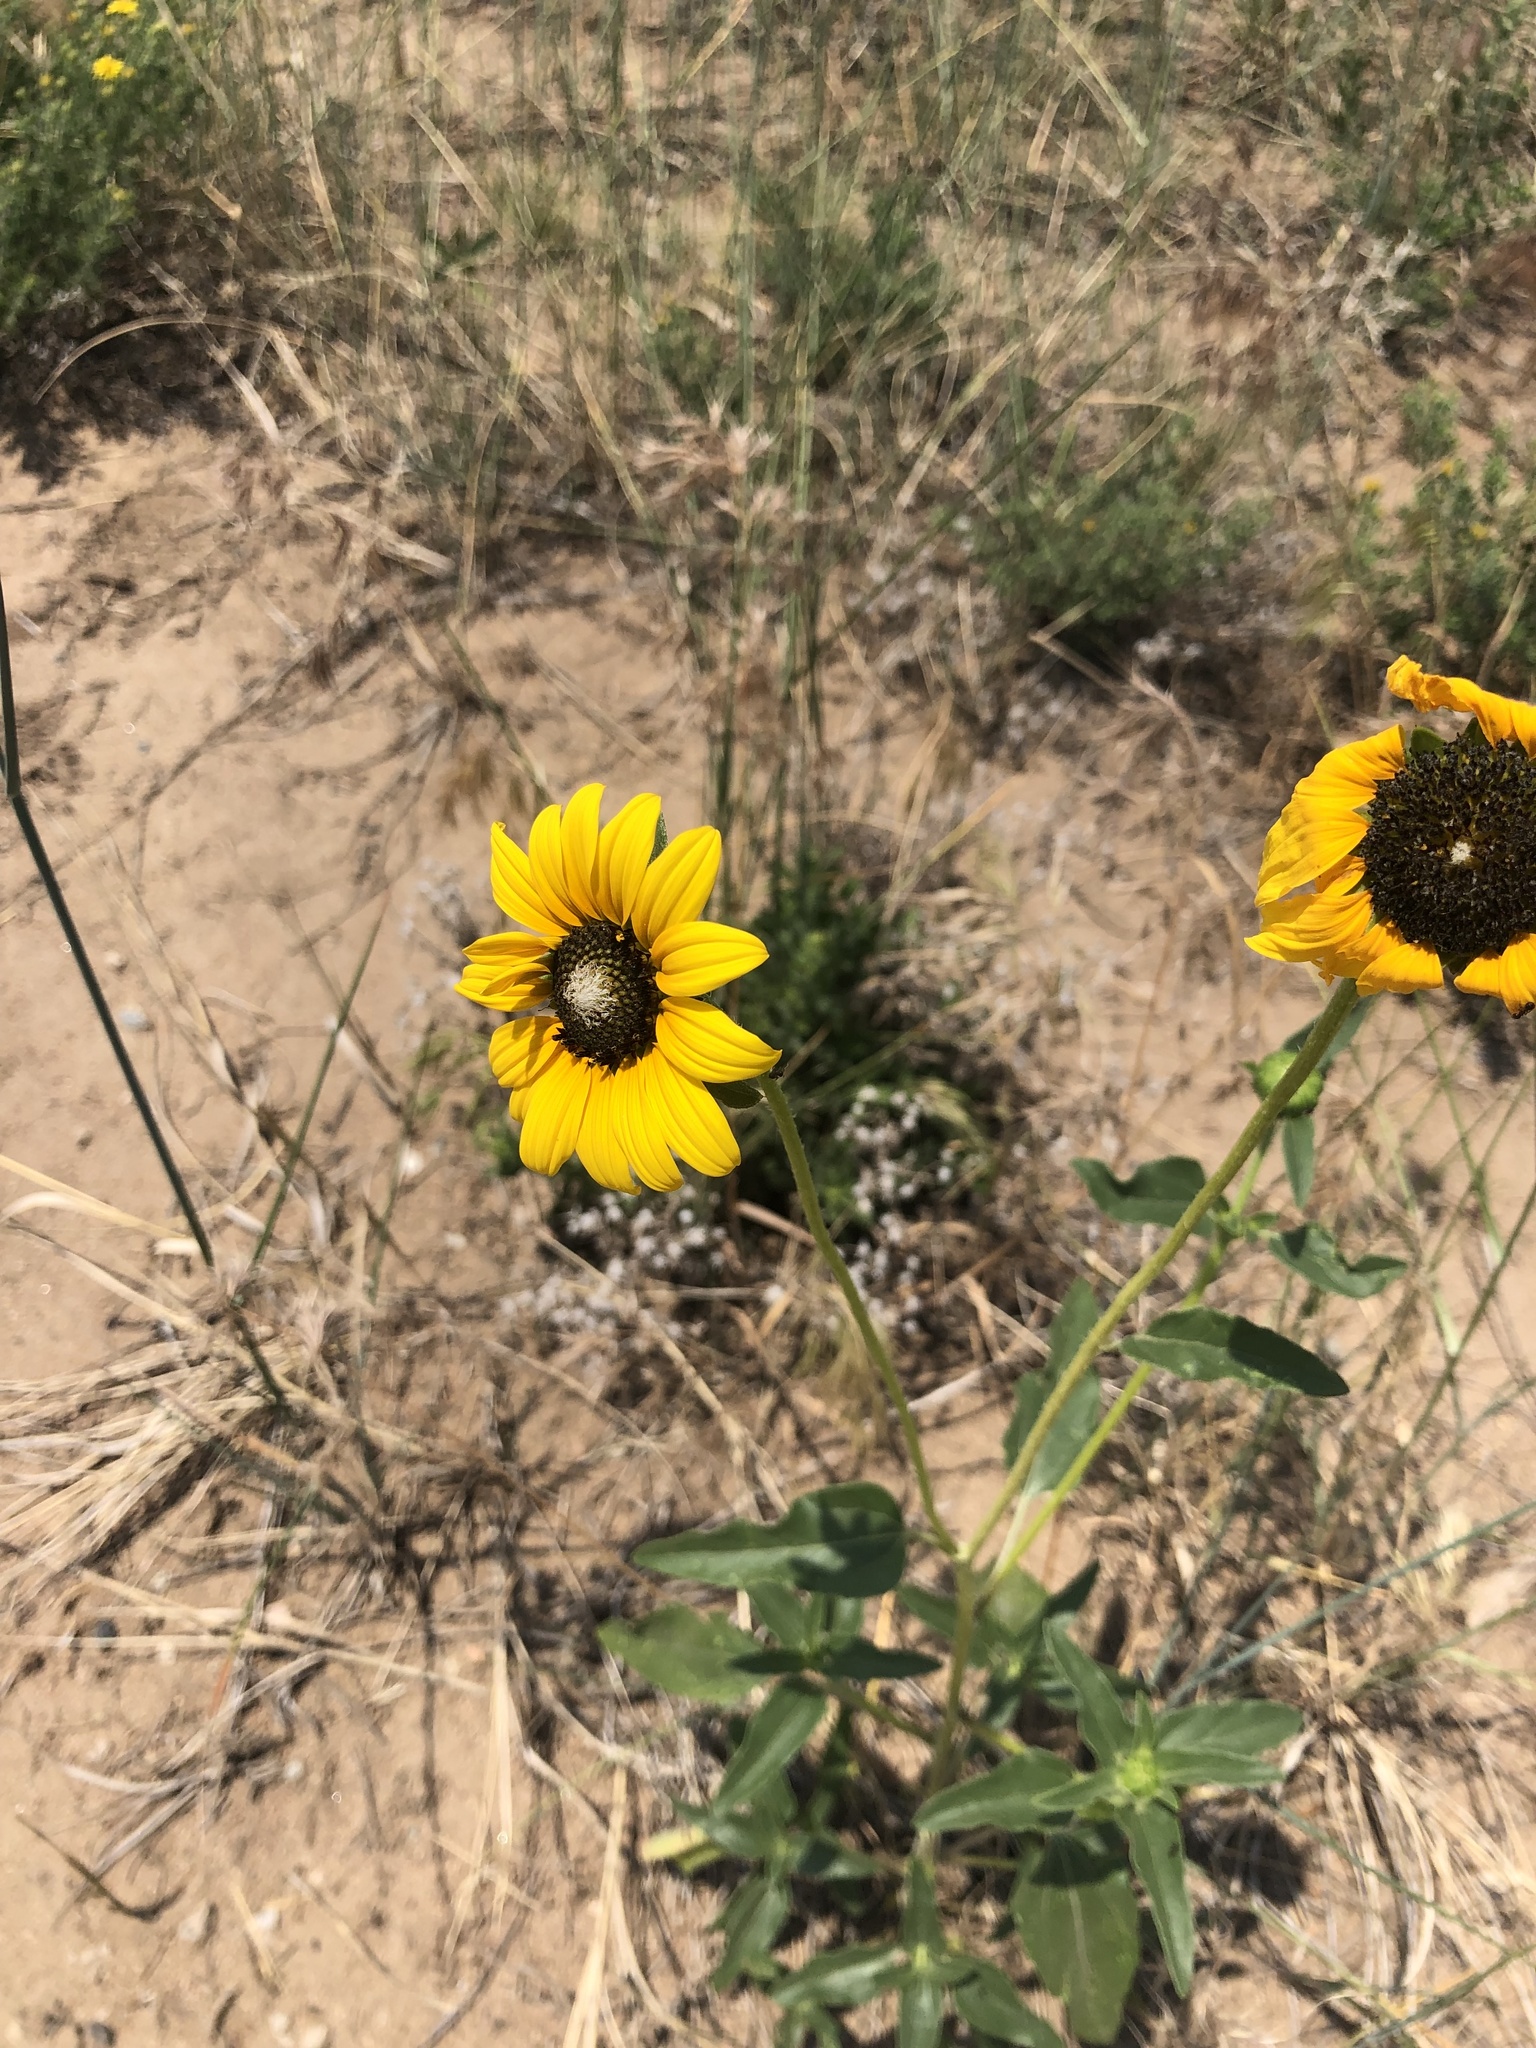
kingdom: Plantae
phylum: Tracheophyta
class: Magnoliopsida
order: Asterales
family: Asteraceae
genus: Helianthus
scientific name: Helianthus petiolaris
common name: Lesser sunflower
